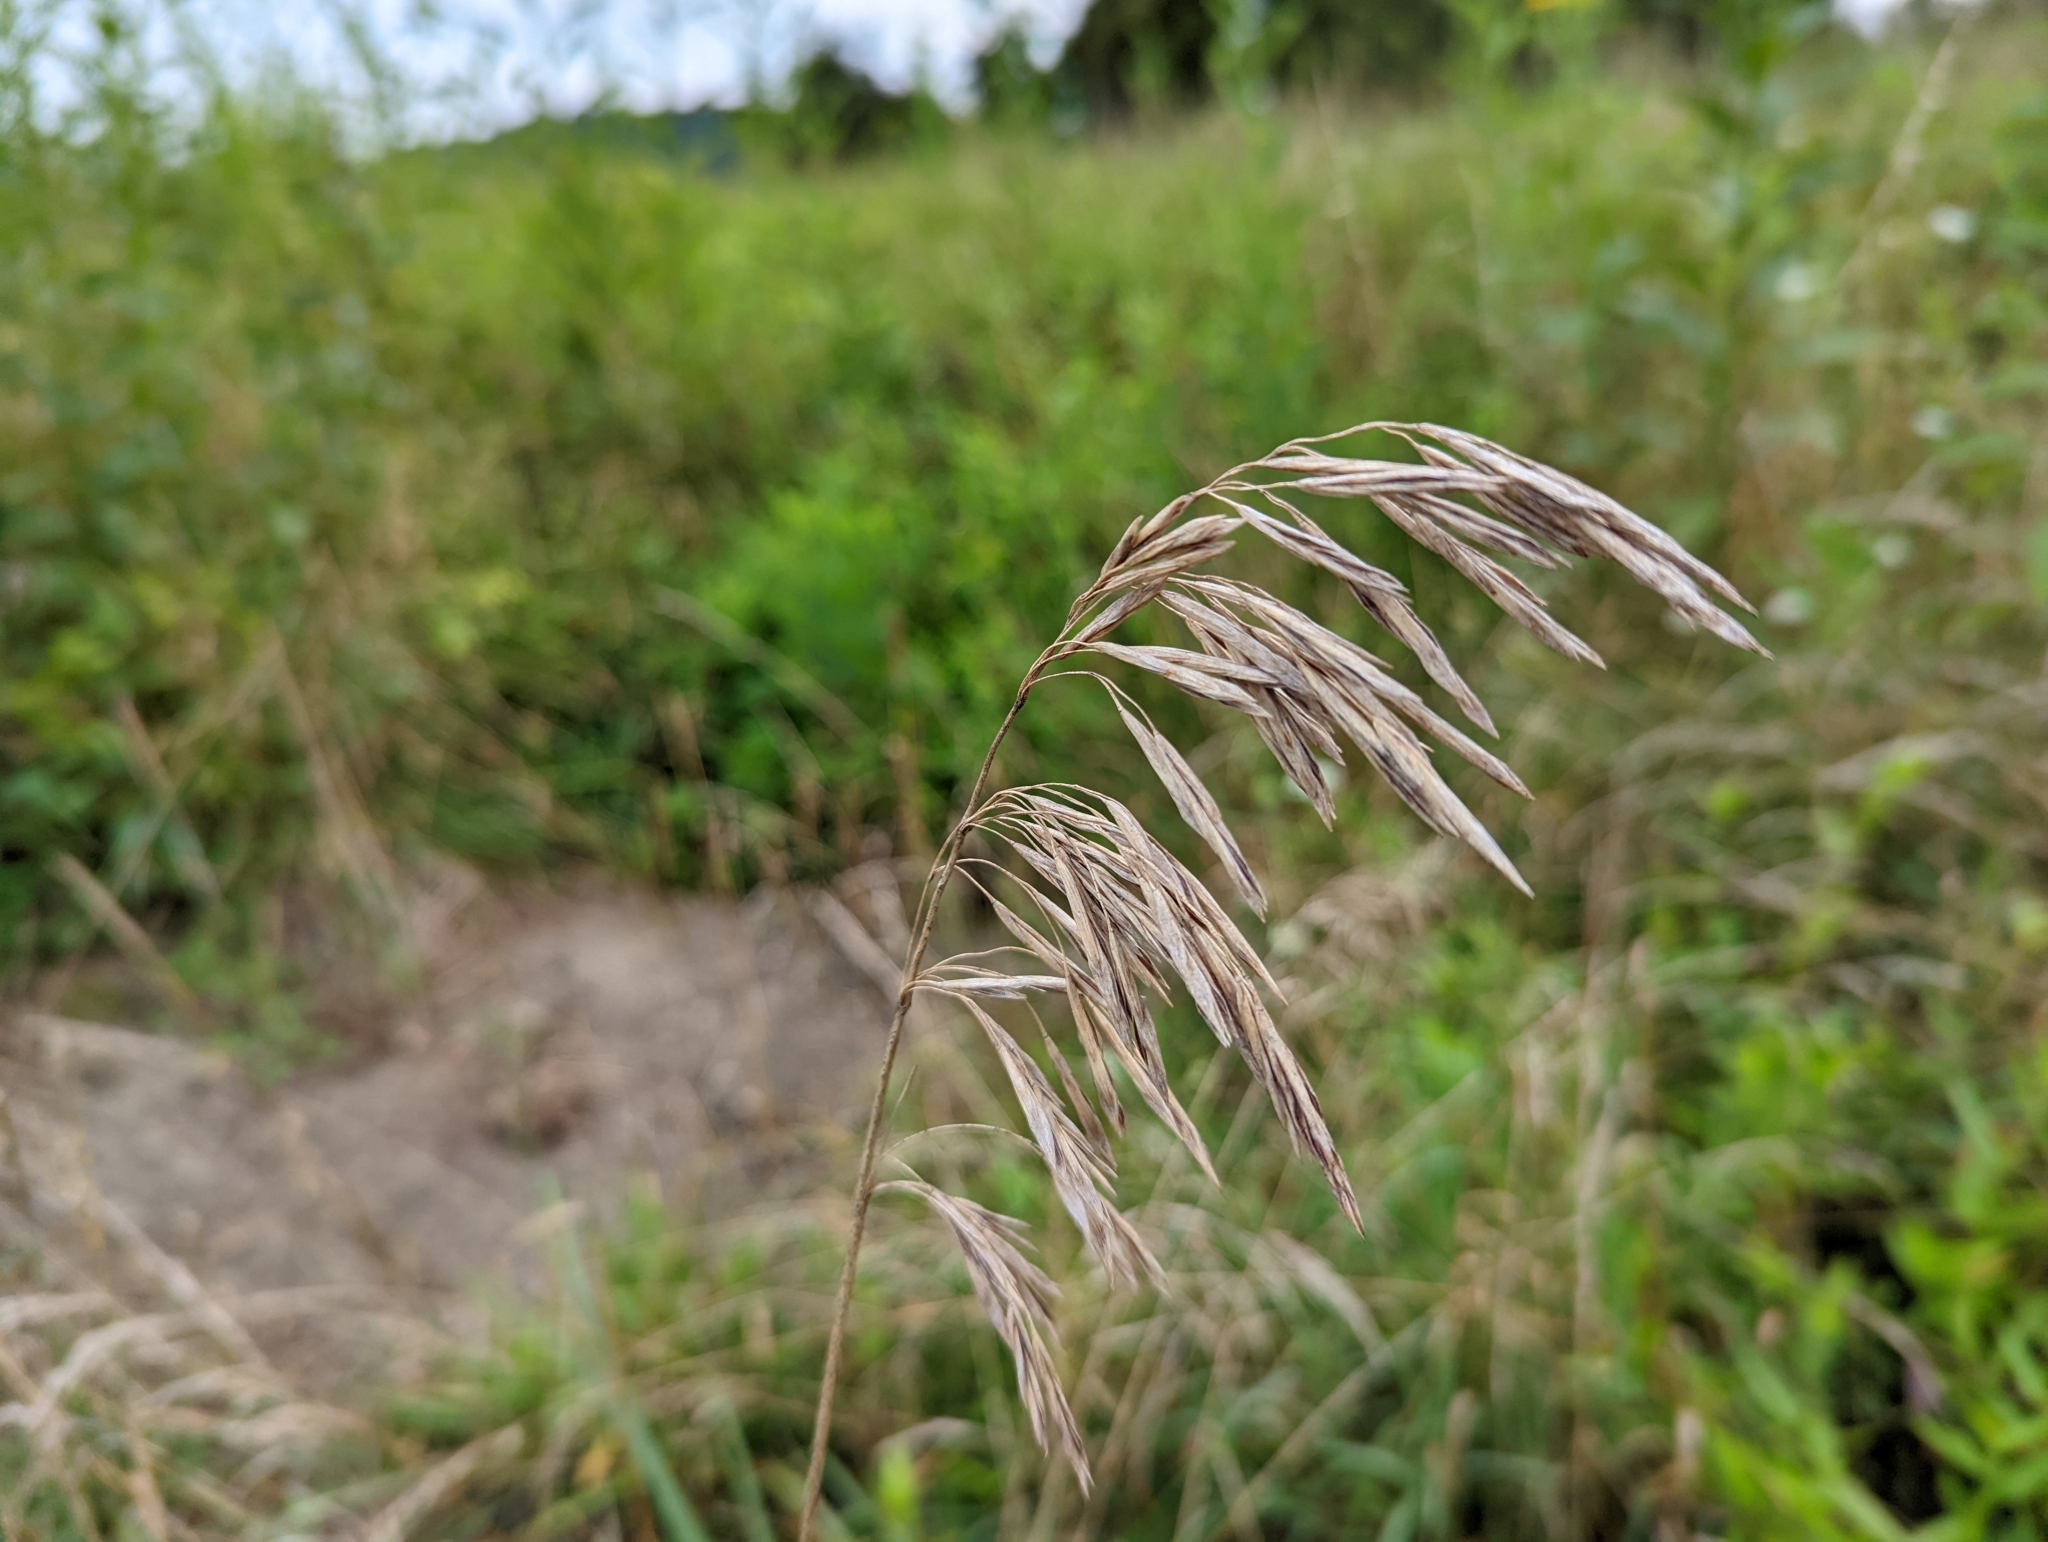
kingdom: Plantae
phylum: Tracheophyta
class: Liliopsida
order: Poales
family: Poaceae
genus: Bromus
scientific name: Bromus inermis
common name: Smooth brome
